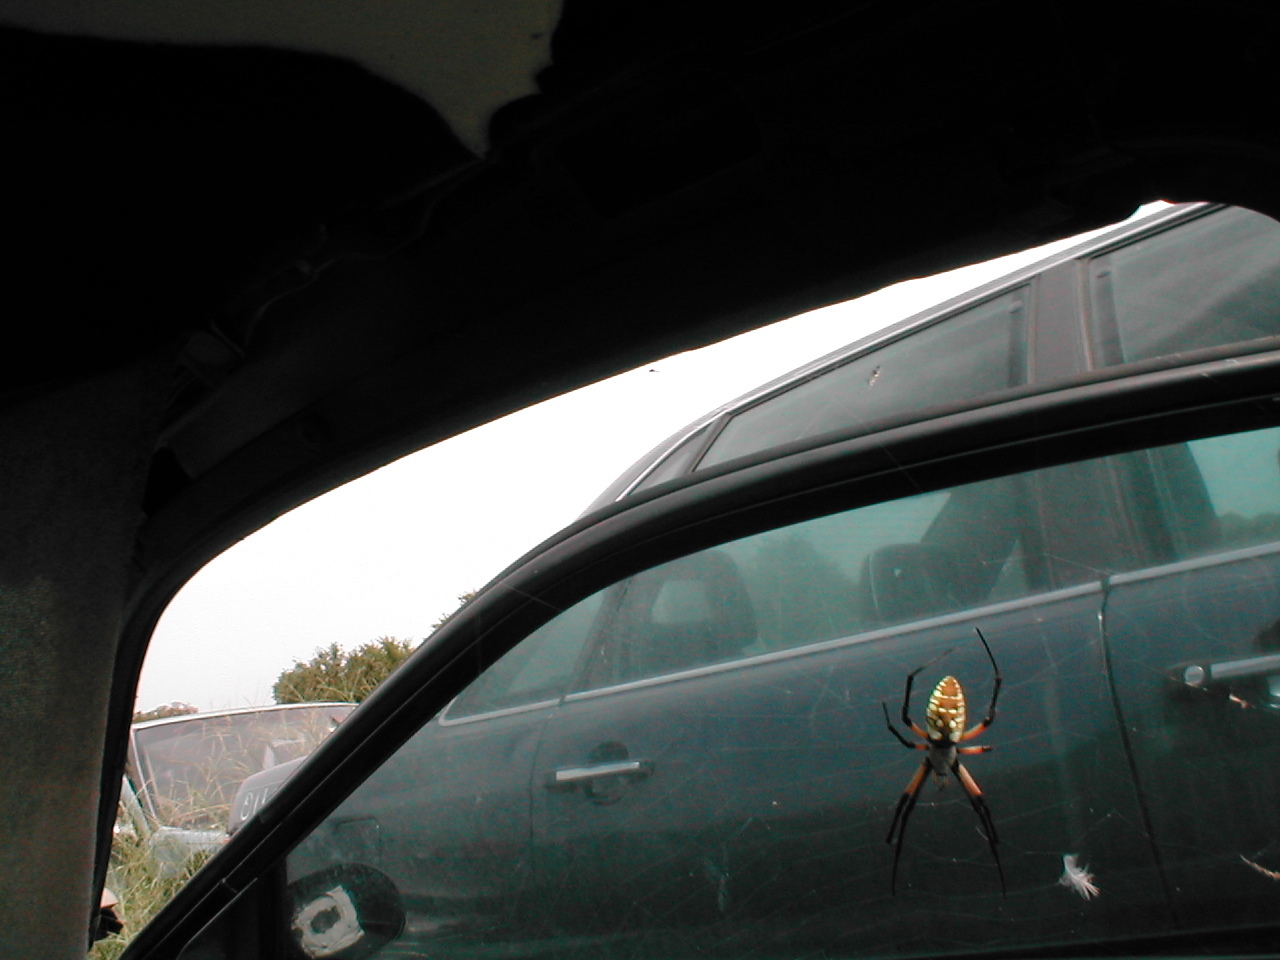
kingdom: Animalia
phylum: Arthropoda
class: Arachnida
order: Araneae
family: Araneidae
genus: Argiope
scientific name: Argiope aurantia
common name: Orb weavers
